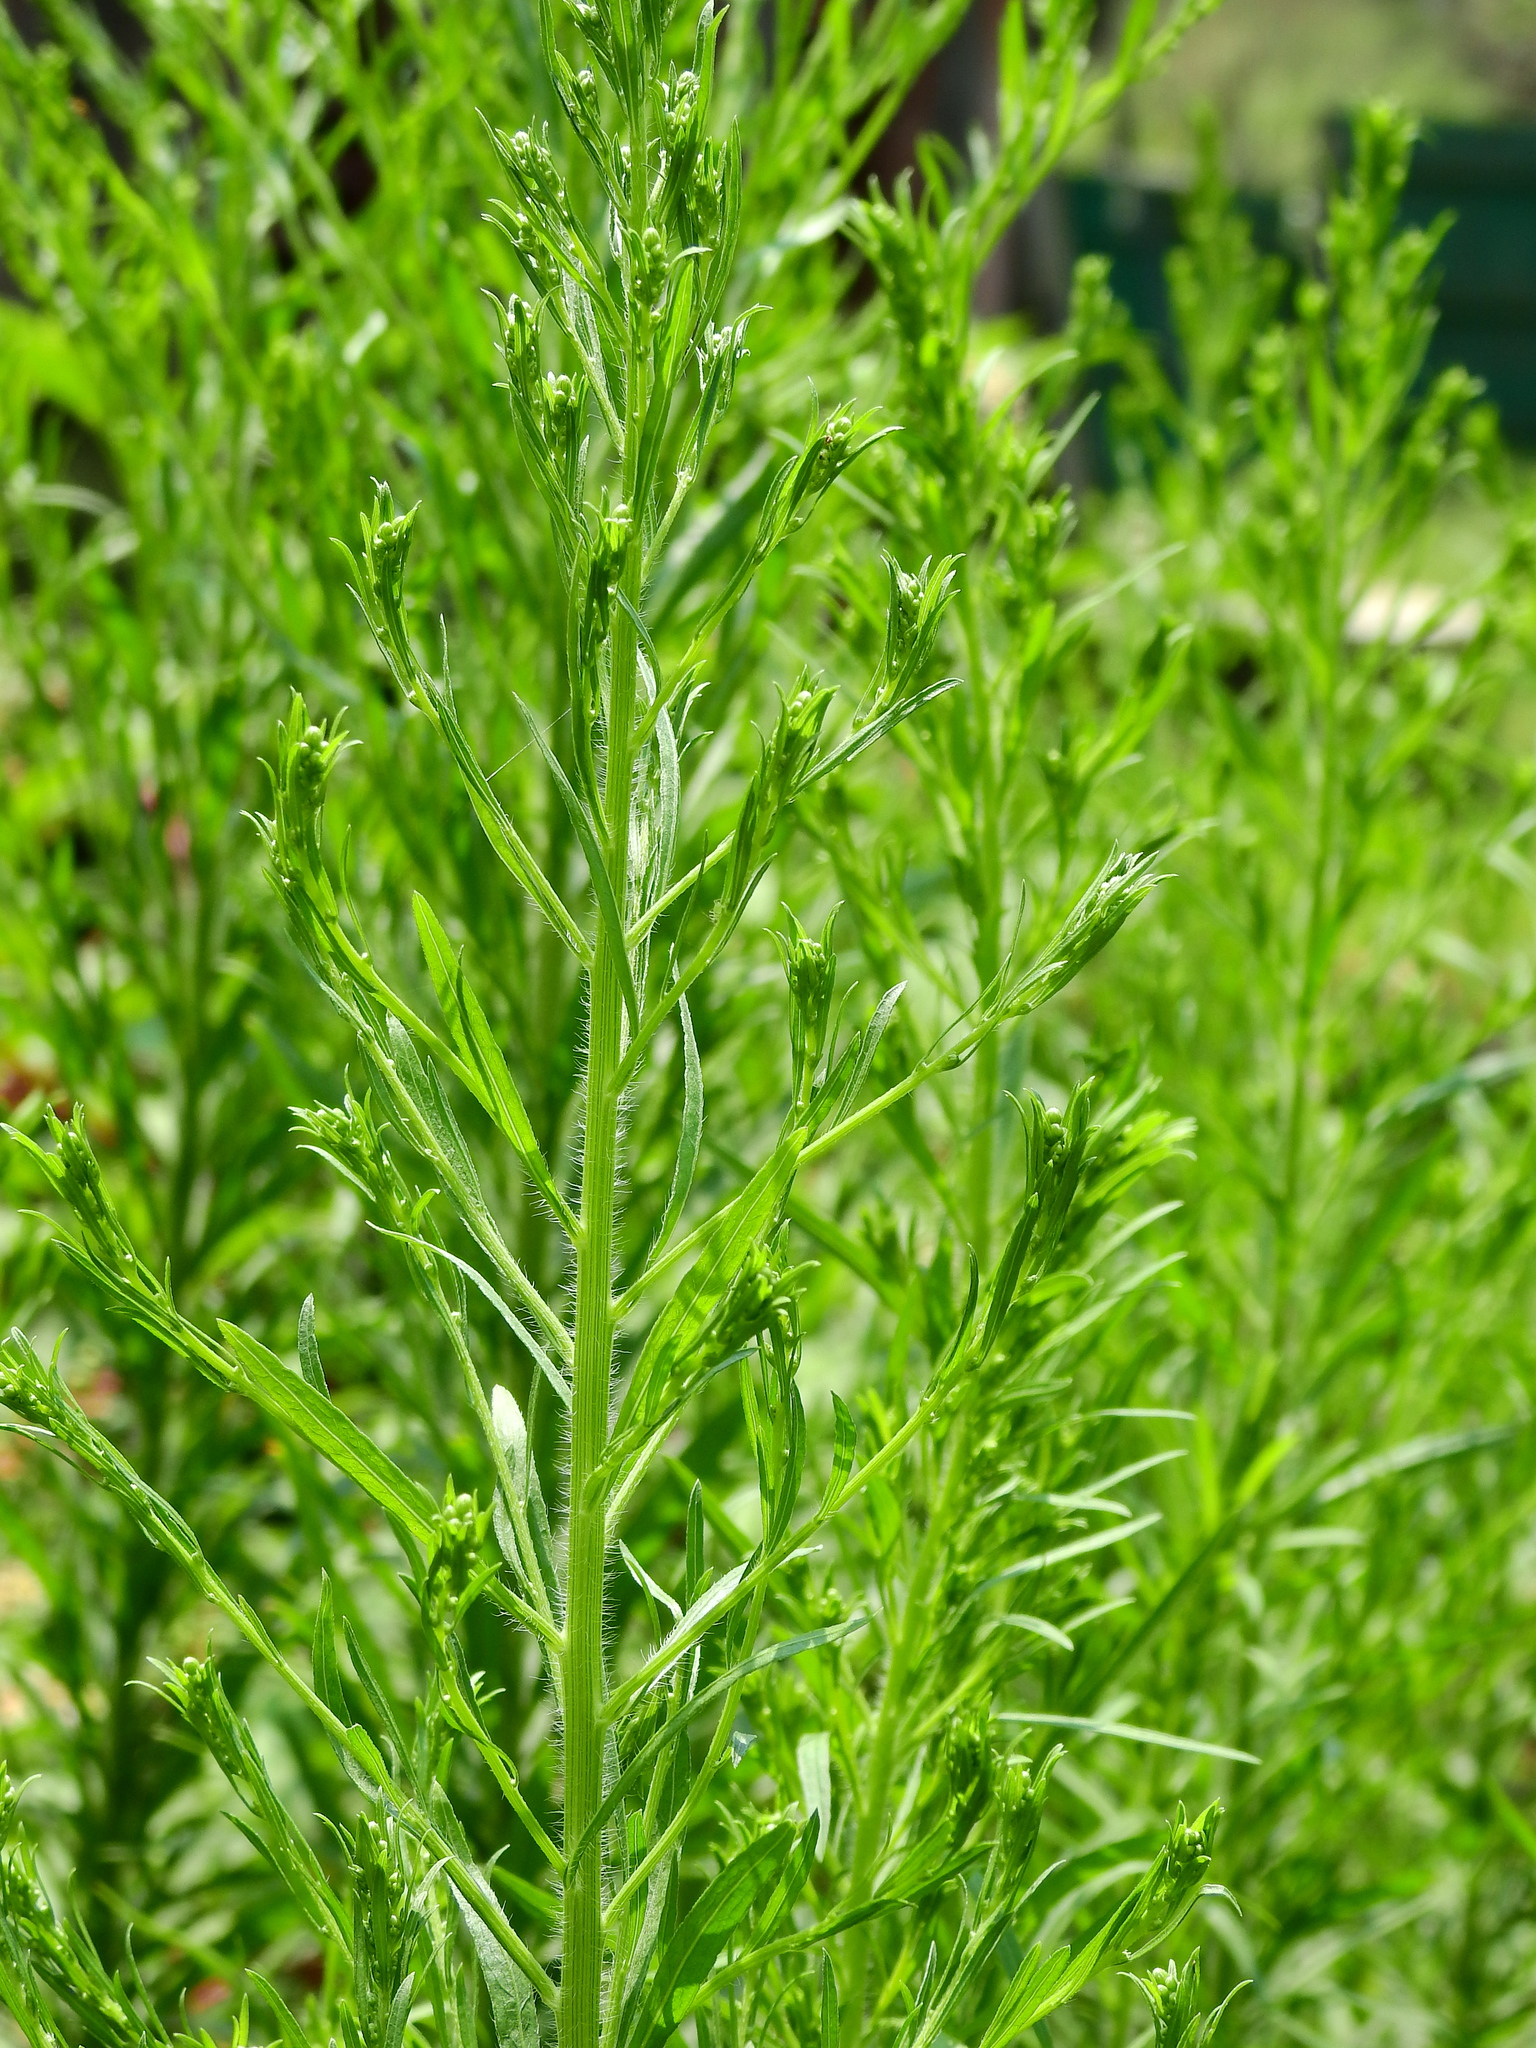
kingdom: Plantae
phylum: Tracheophyta
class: Magnoliopsida
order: Asterales
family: Asteraceae
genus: Erigeron
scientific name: Erigeron canadensis
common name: Canadian fleabane
